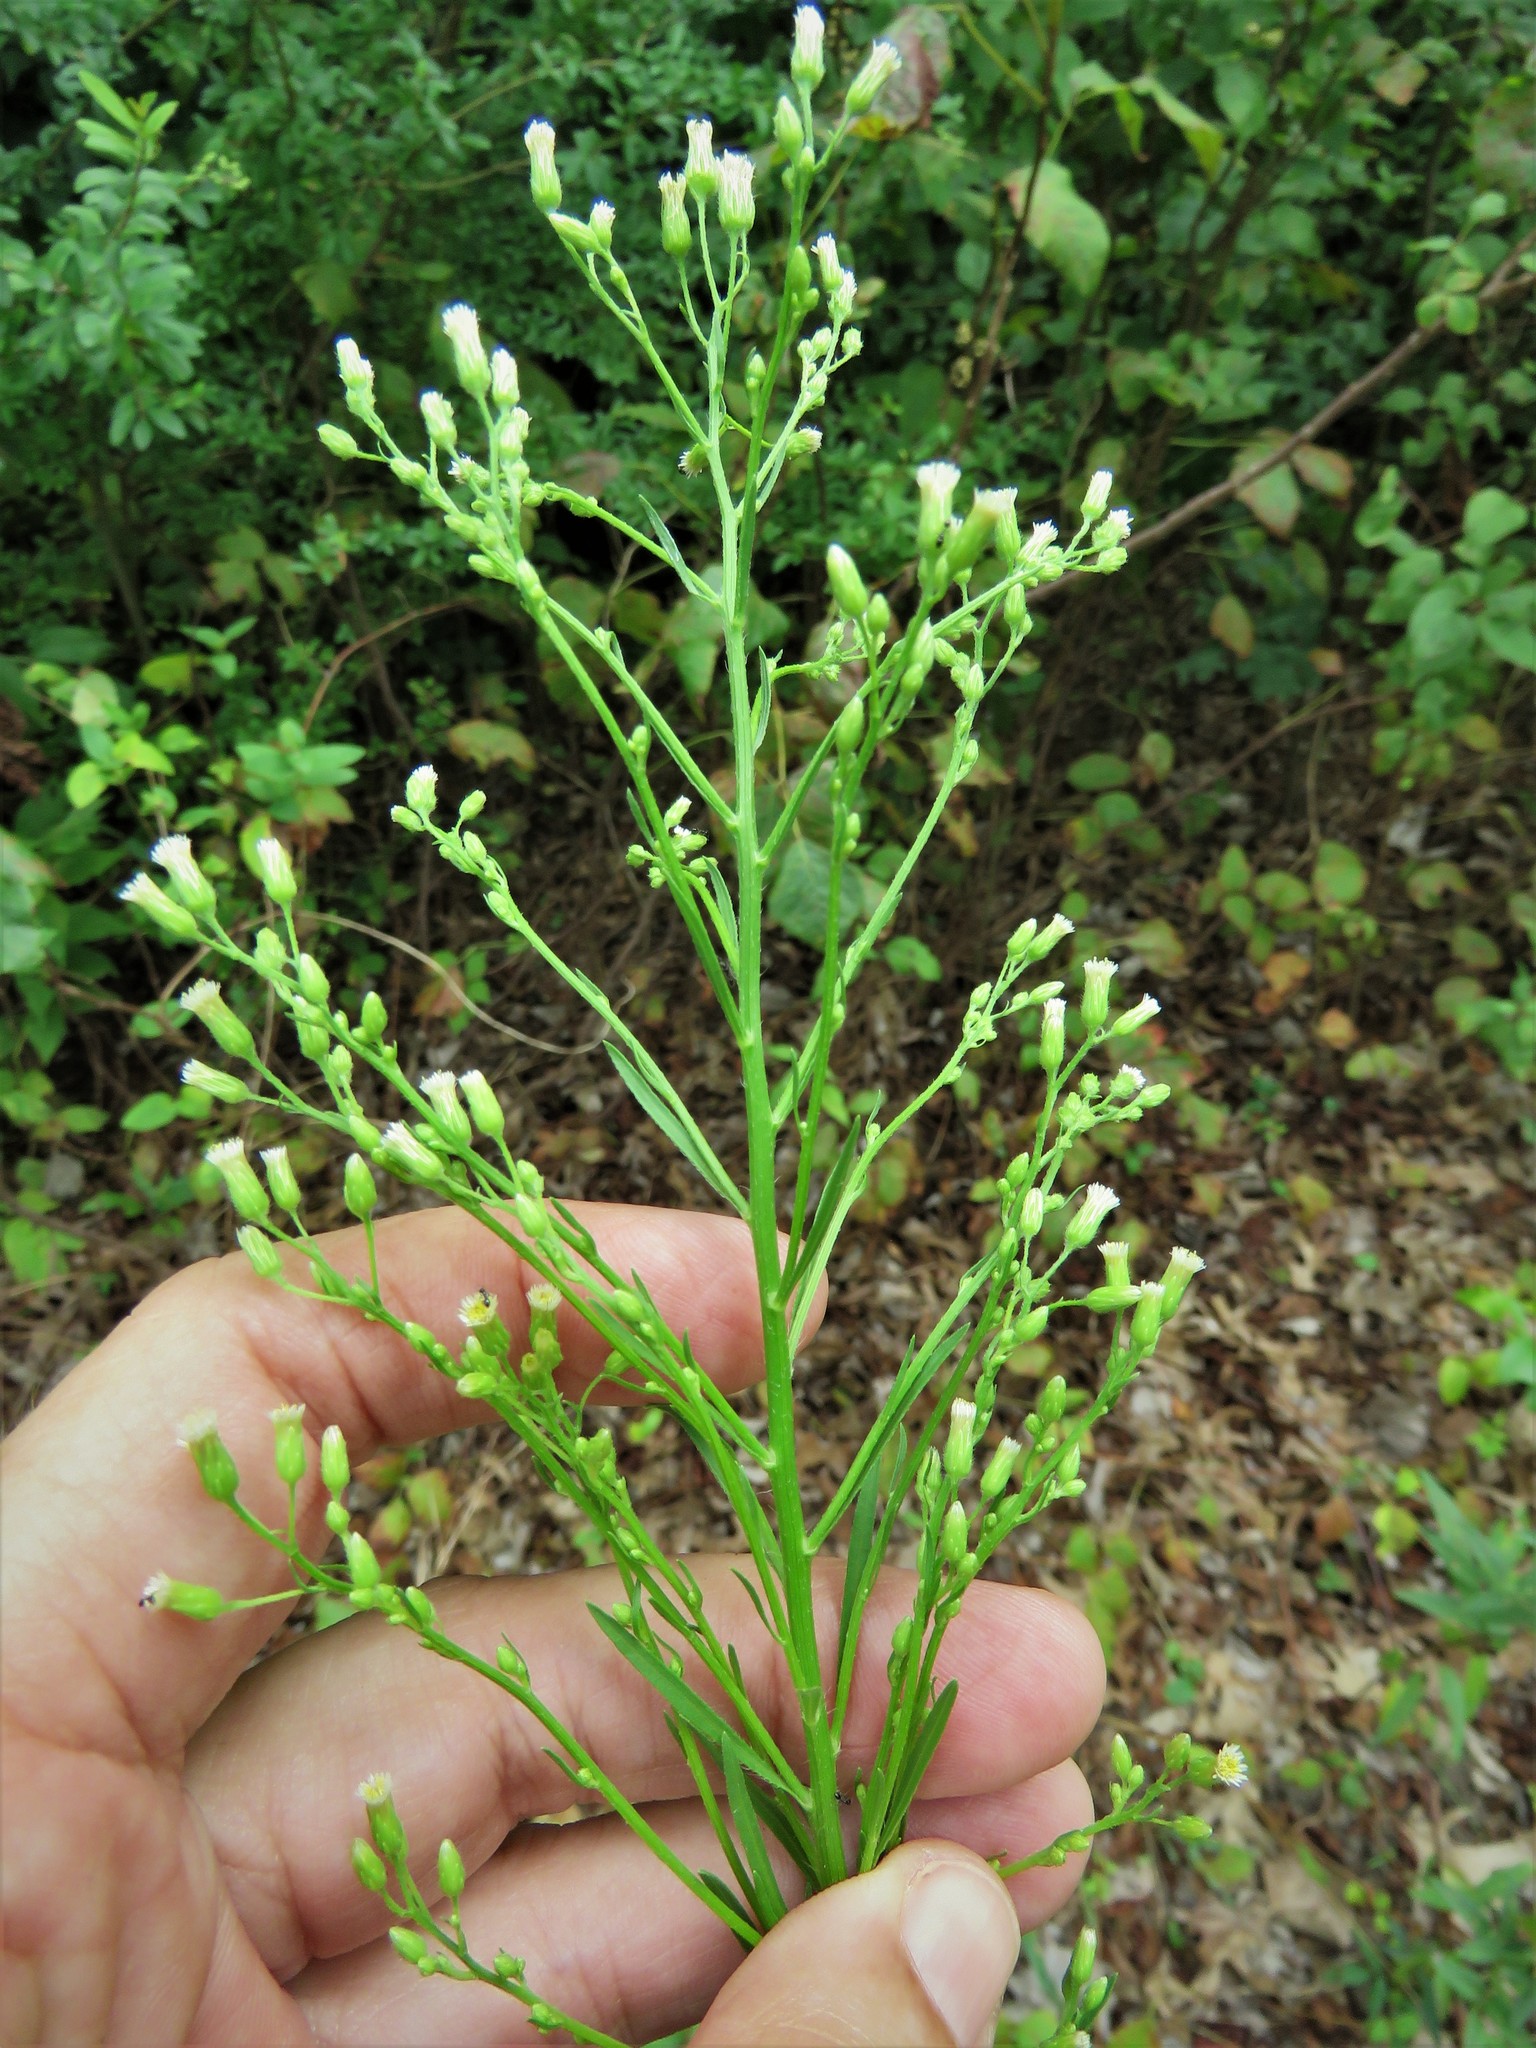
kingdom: Plantae
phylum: Tracheophyta
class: Magnoliopsida
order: Asterales
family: Asteraceae
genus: Erigeron
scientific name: Erigeron canadensis
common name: Canadian fleabane
